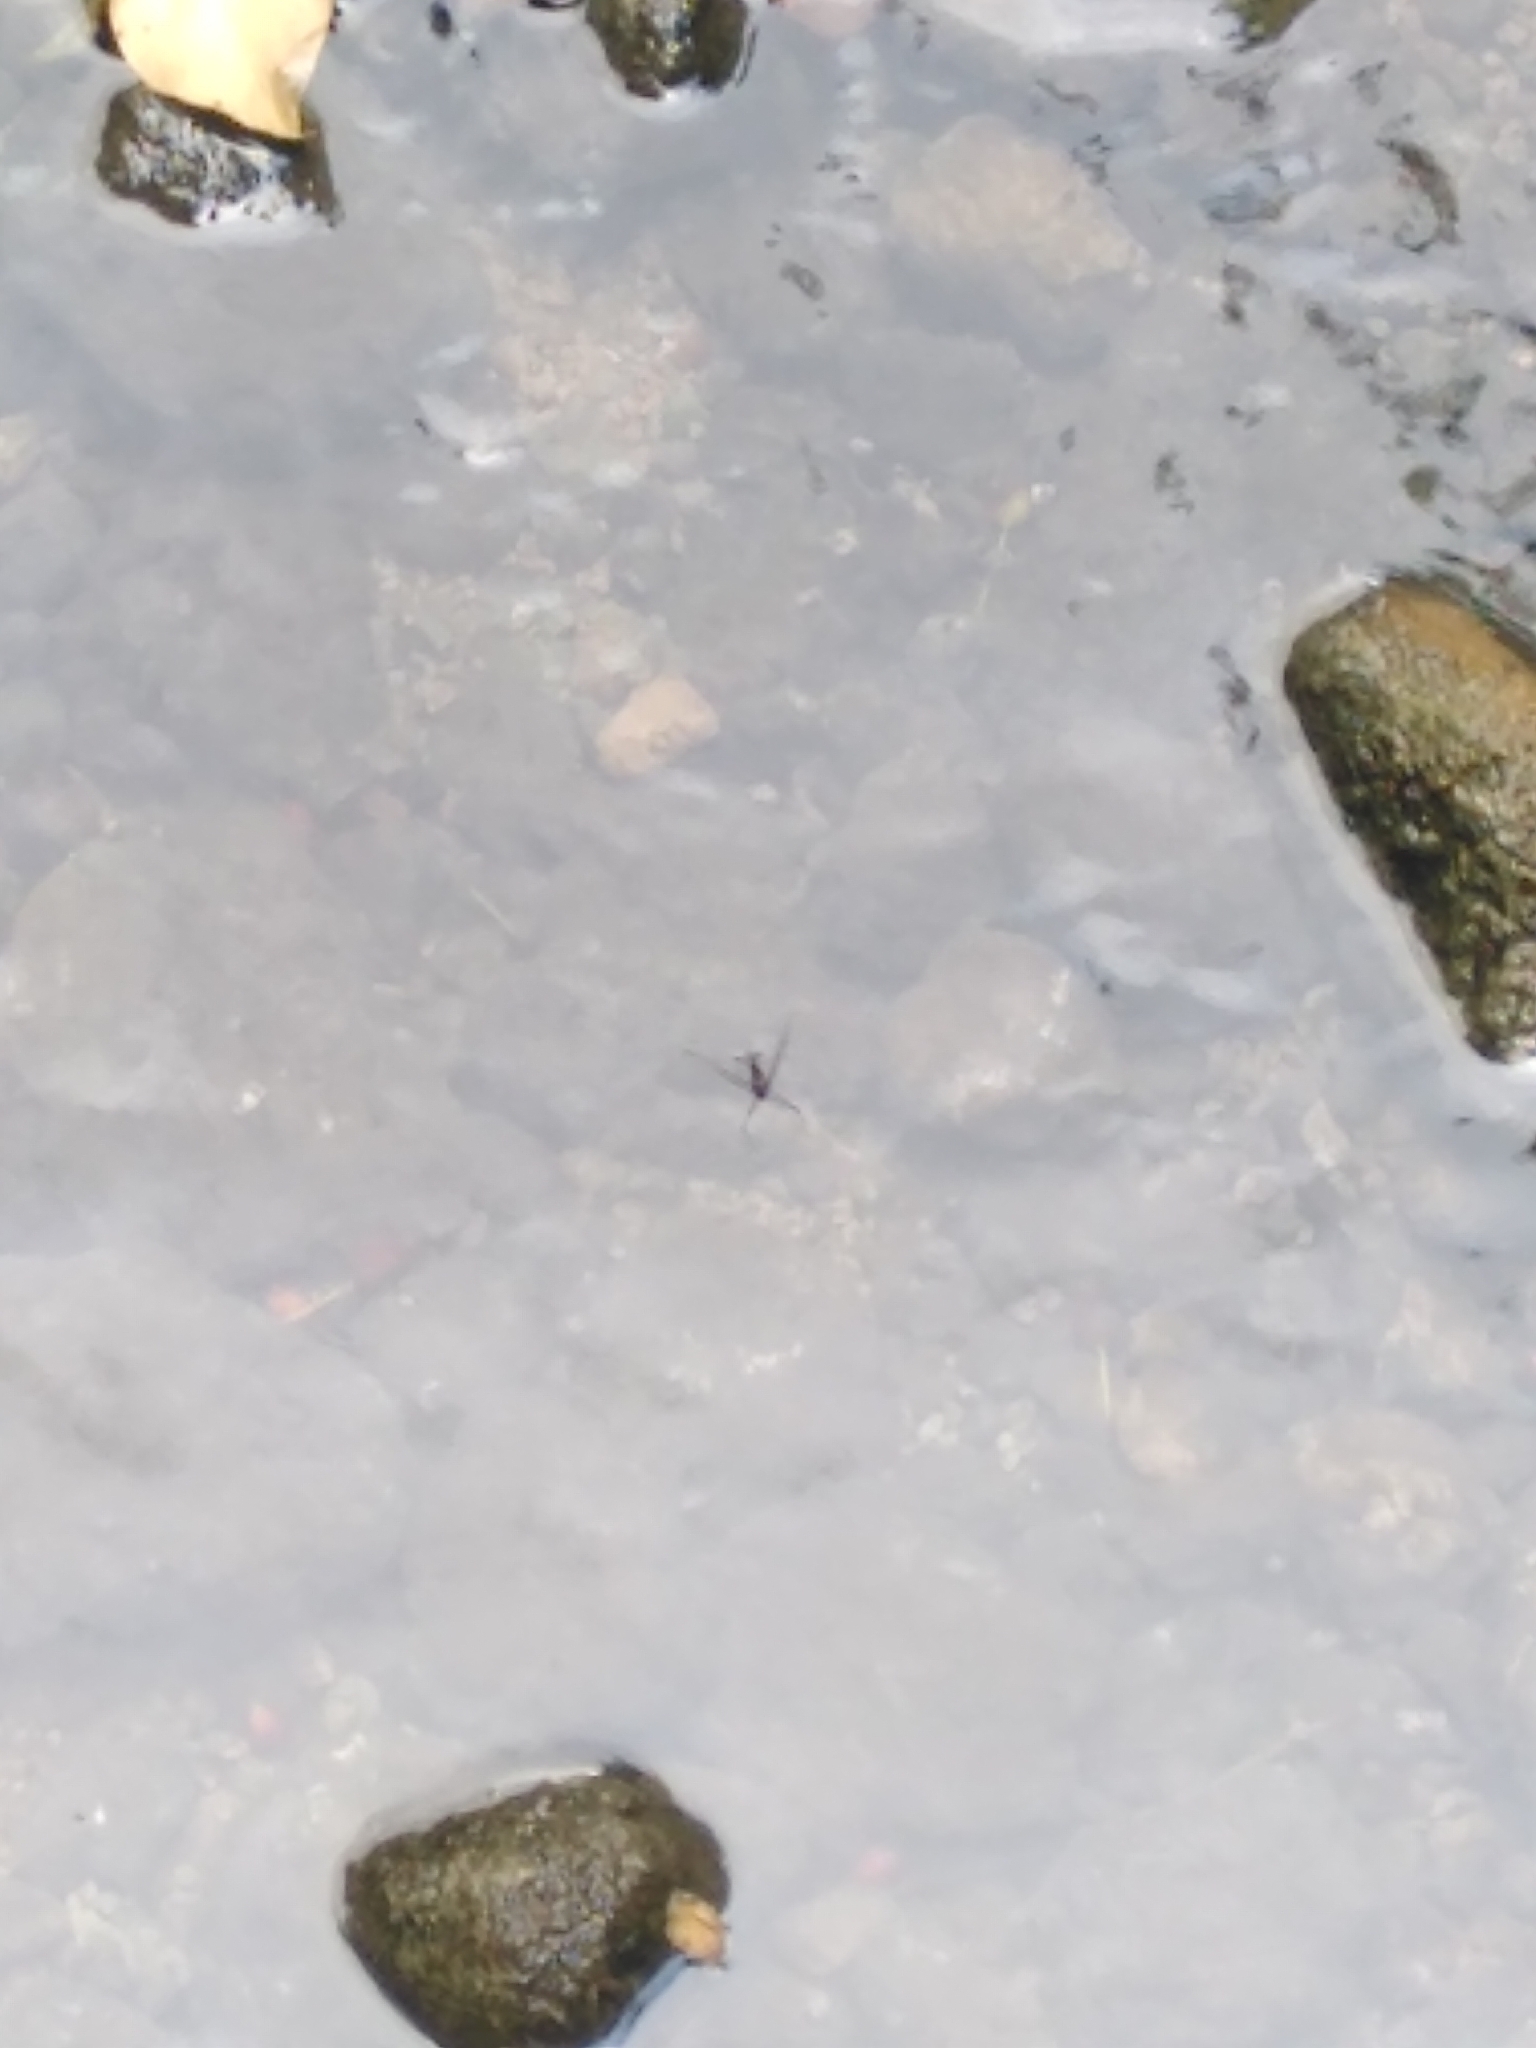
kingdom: Animalia
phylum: Arthropoda
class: Insecta
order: Hemiptera
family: Gerridae
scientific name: Gerridae
